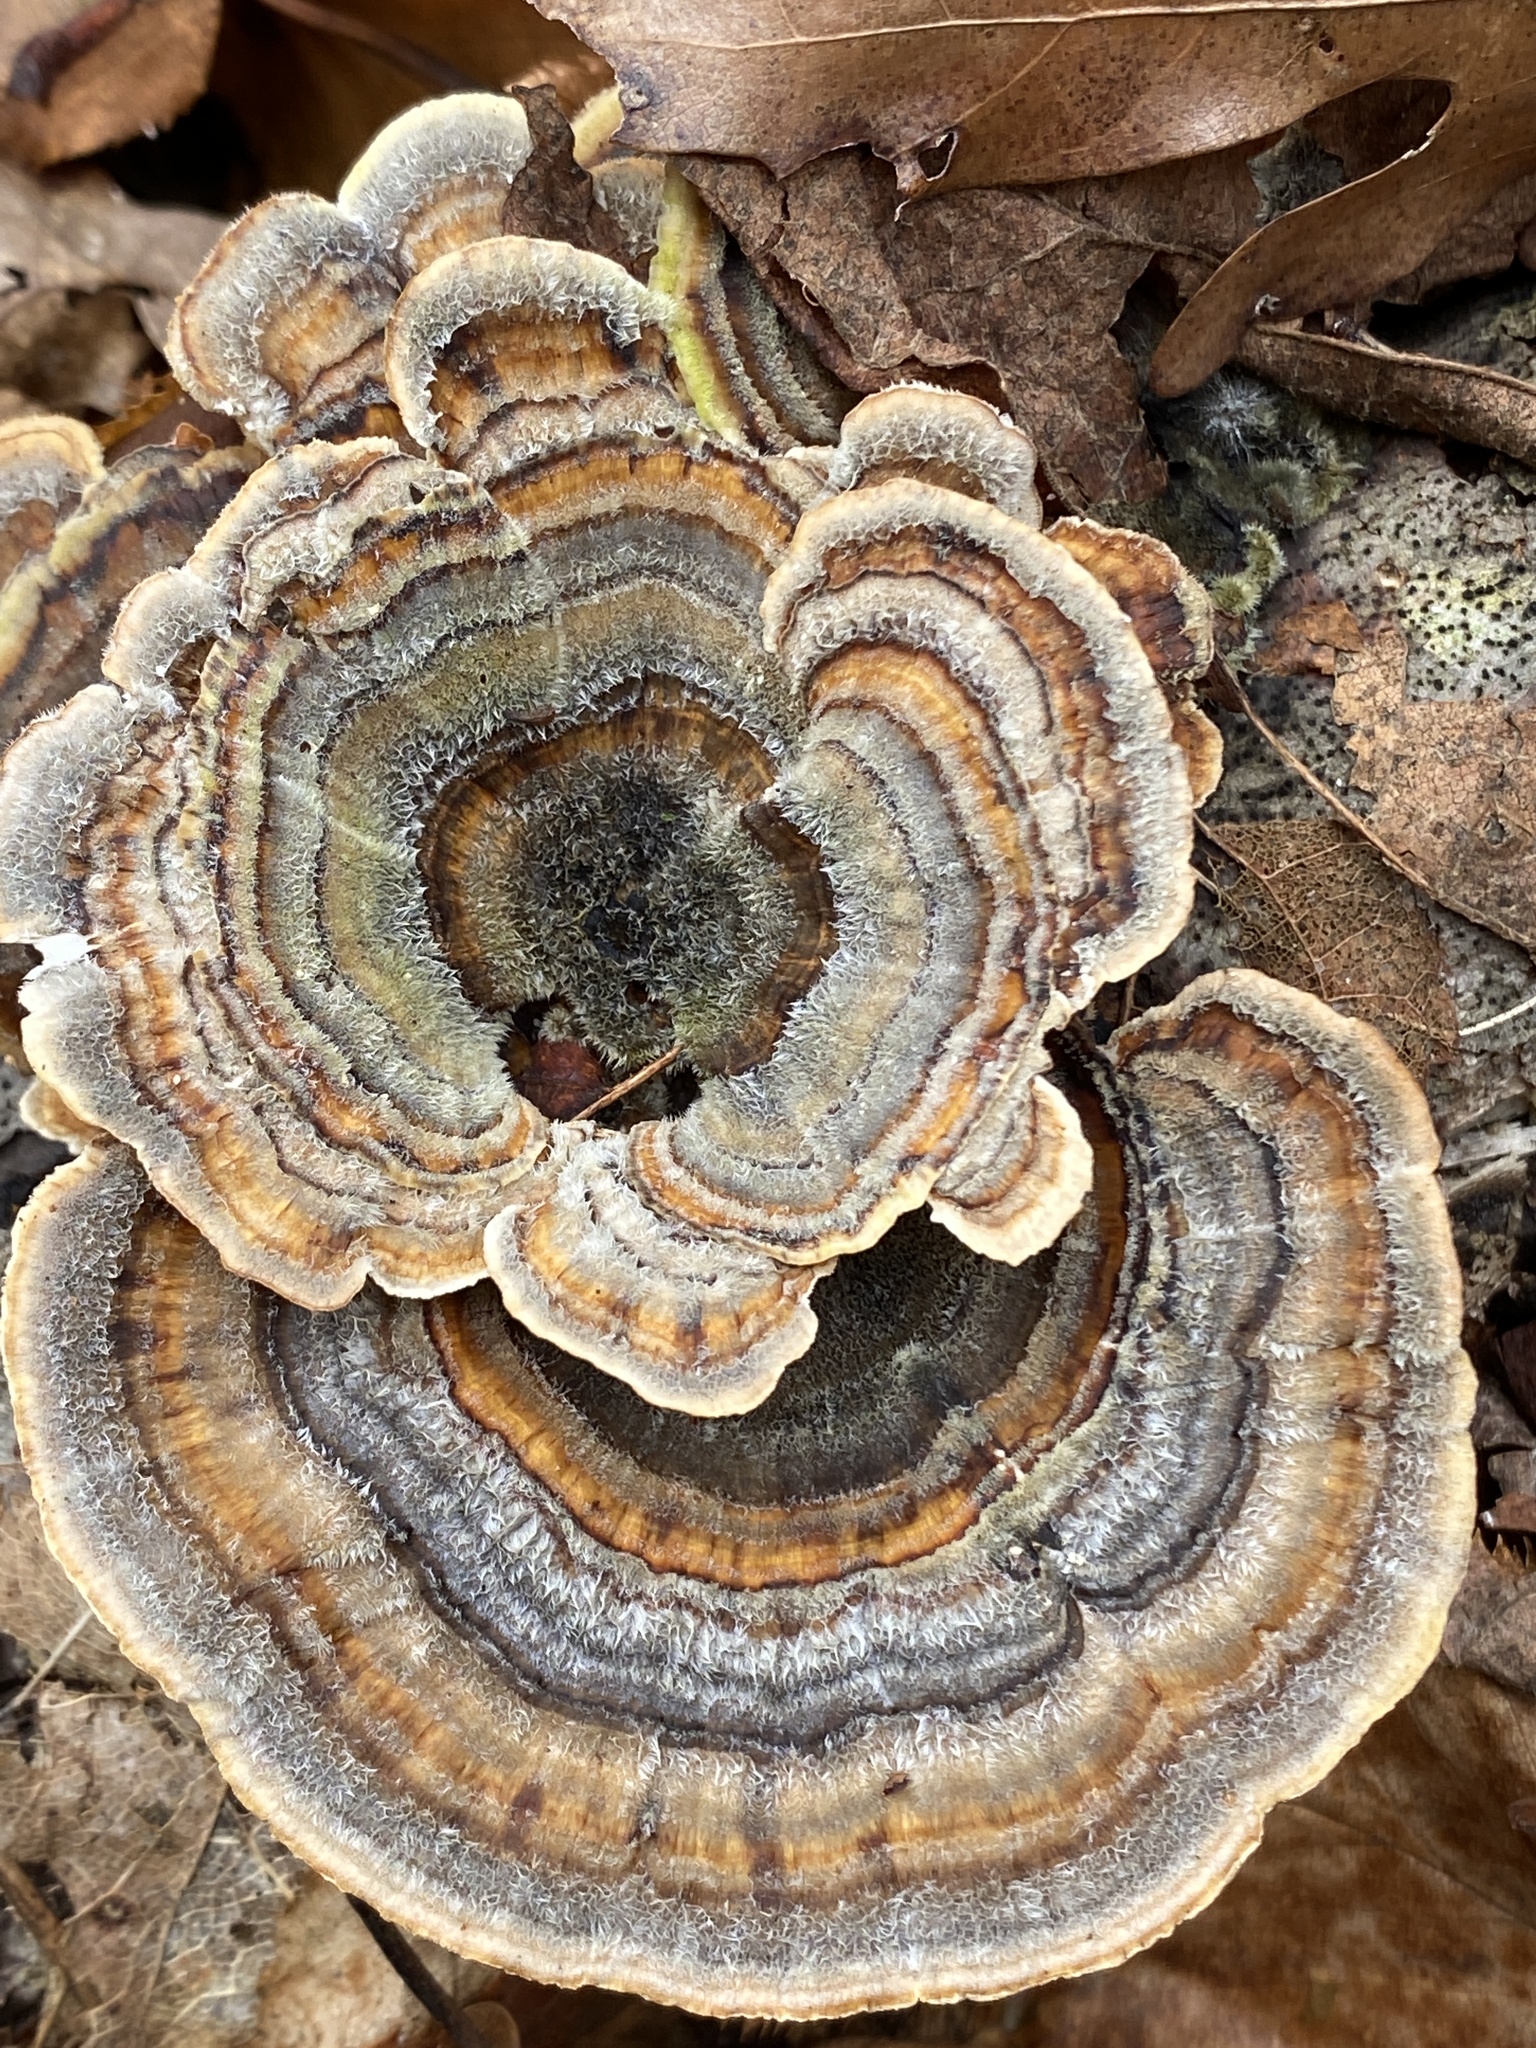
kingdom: Fungi
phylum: Basidiomycota
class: Agaricomycetes
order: Polyporales
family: Polyporaceae
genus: Trametes
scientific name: Trametes versicolor
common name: Turkeytail
